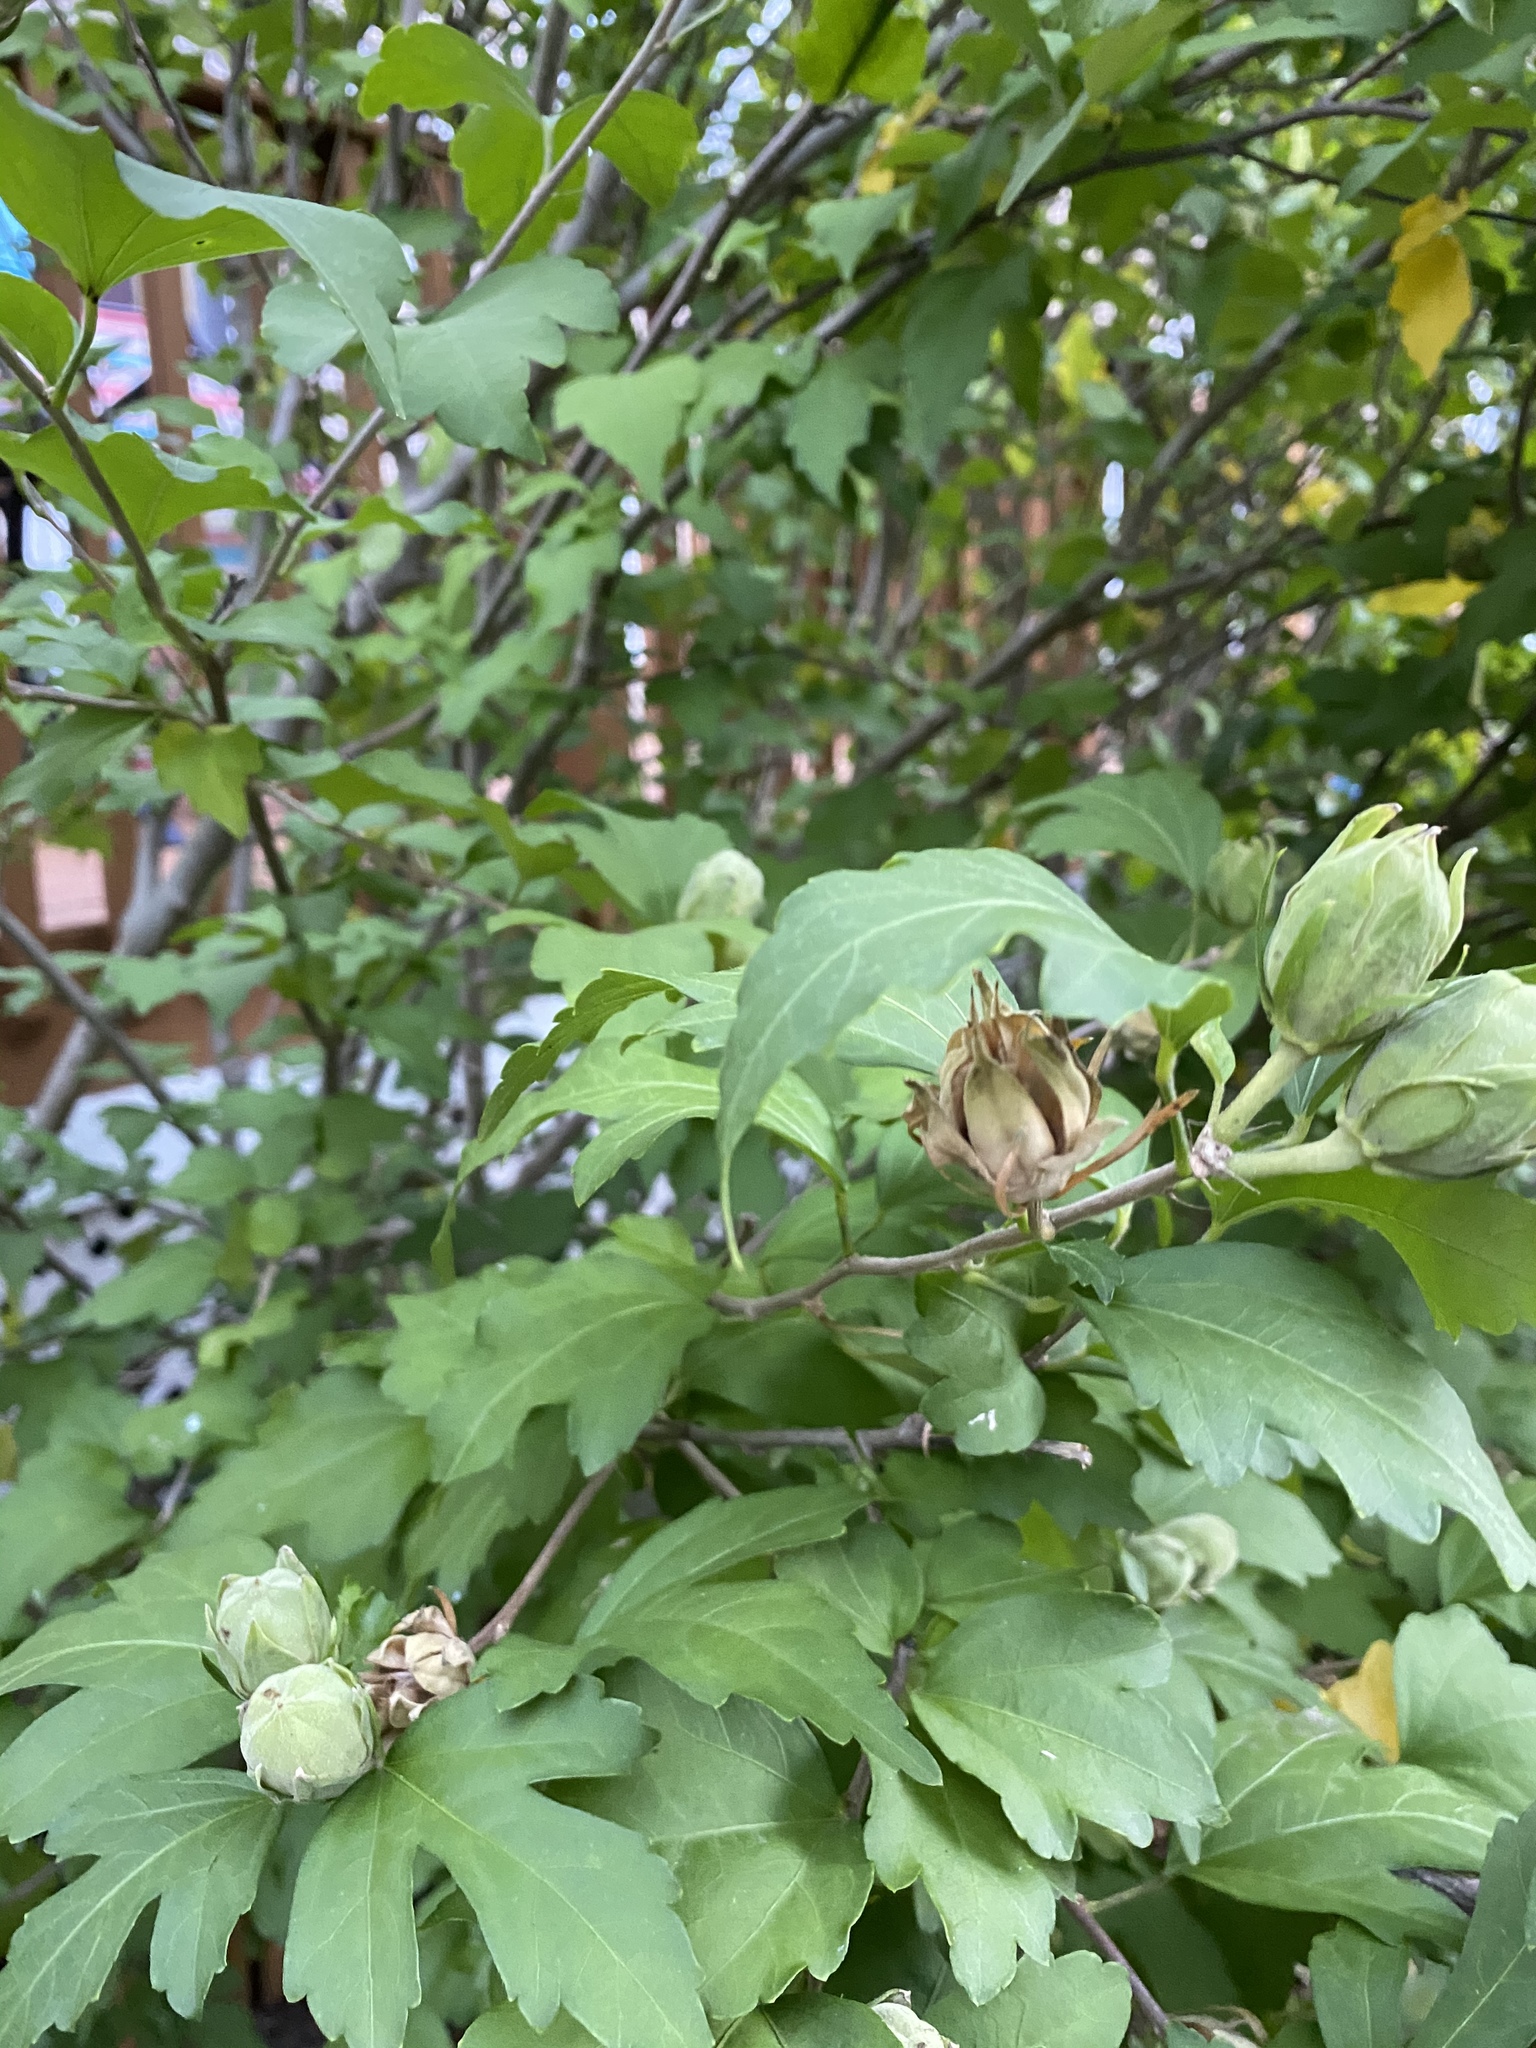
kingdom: Plantae
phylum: Tracheophyta
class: Magnoliopsida
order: Malvales
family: Malvaceae
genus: Hibiscus
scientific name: Hibiscus syriacus
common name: Syrian ketmia
